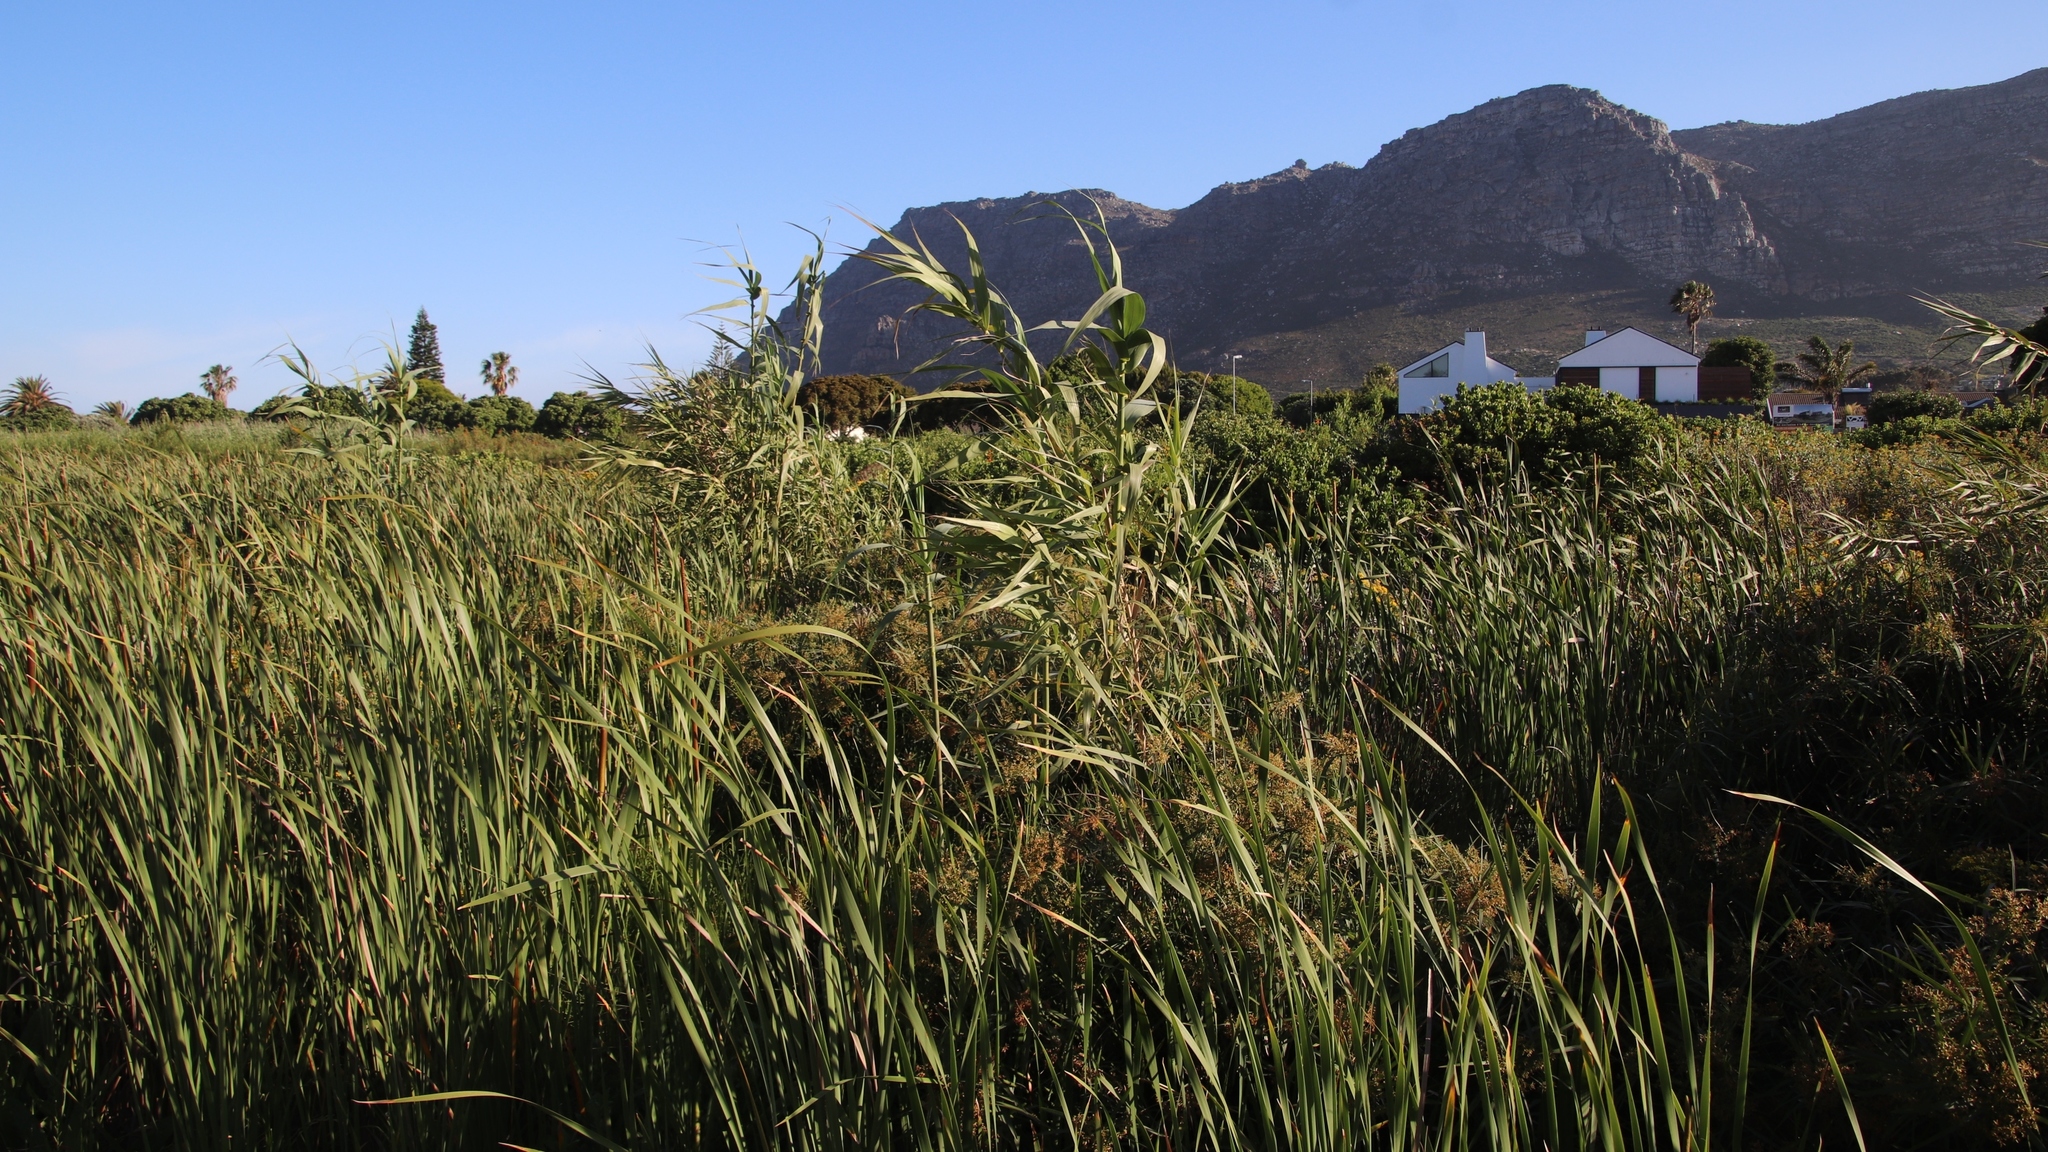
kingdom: Plantae
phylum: Tracheophyta
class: Liliopsida
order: Poales
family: Poaceae
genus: Arundo
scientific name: Arundo donax
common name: Giant reed
